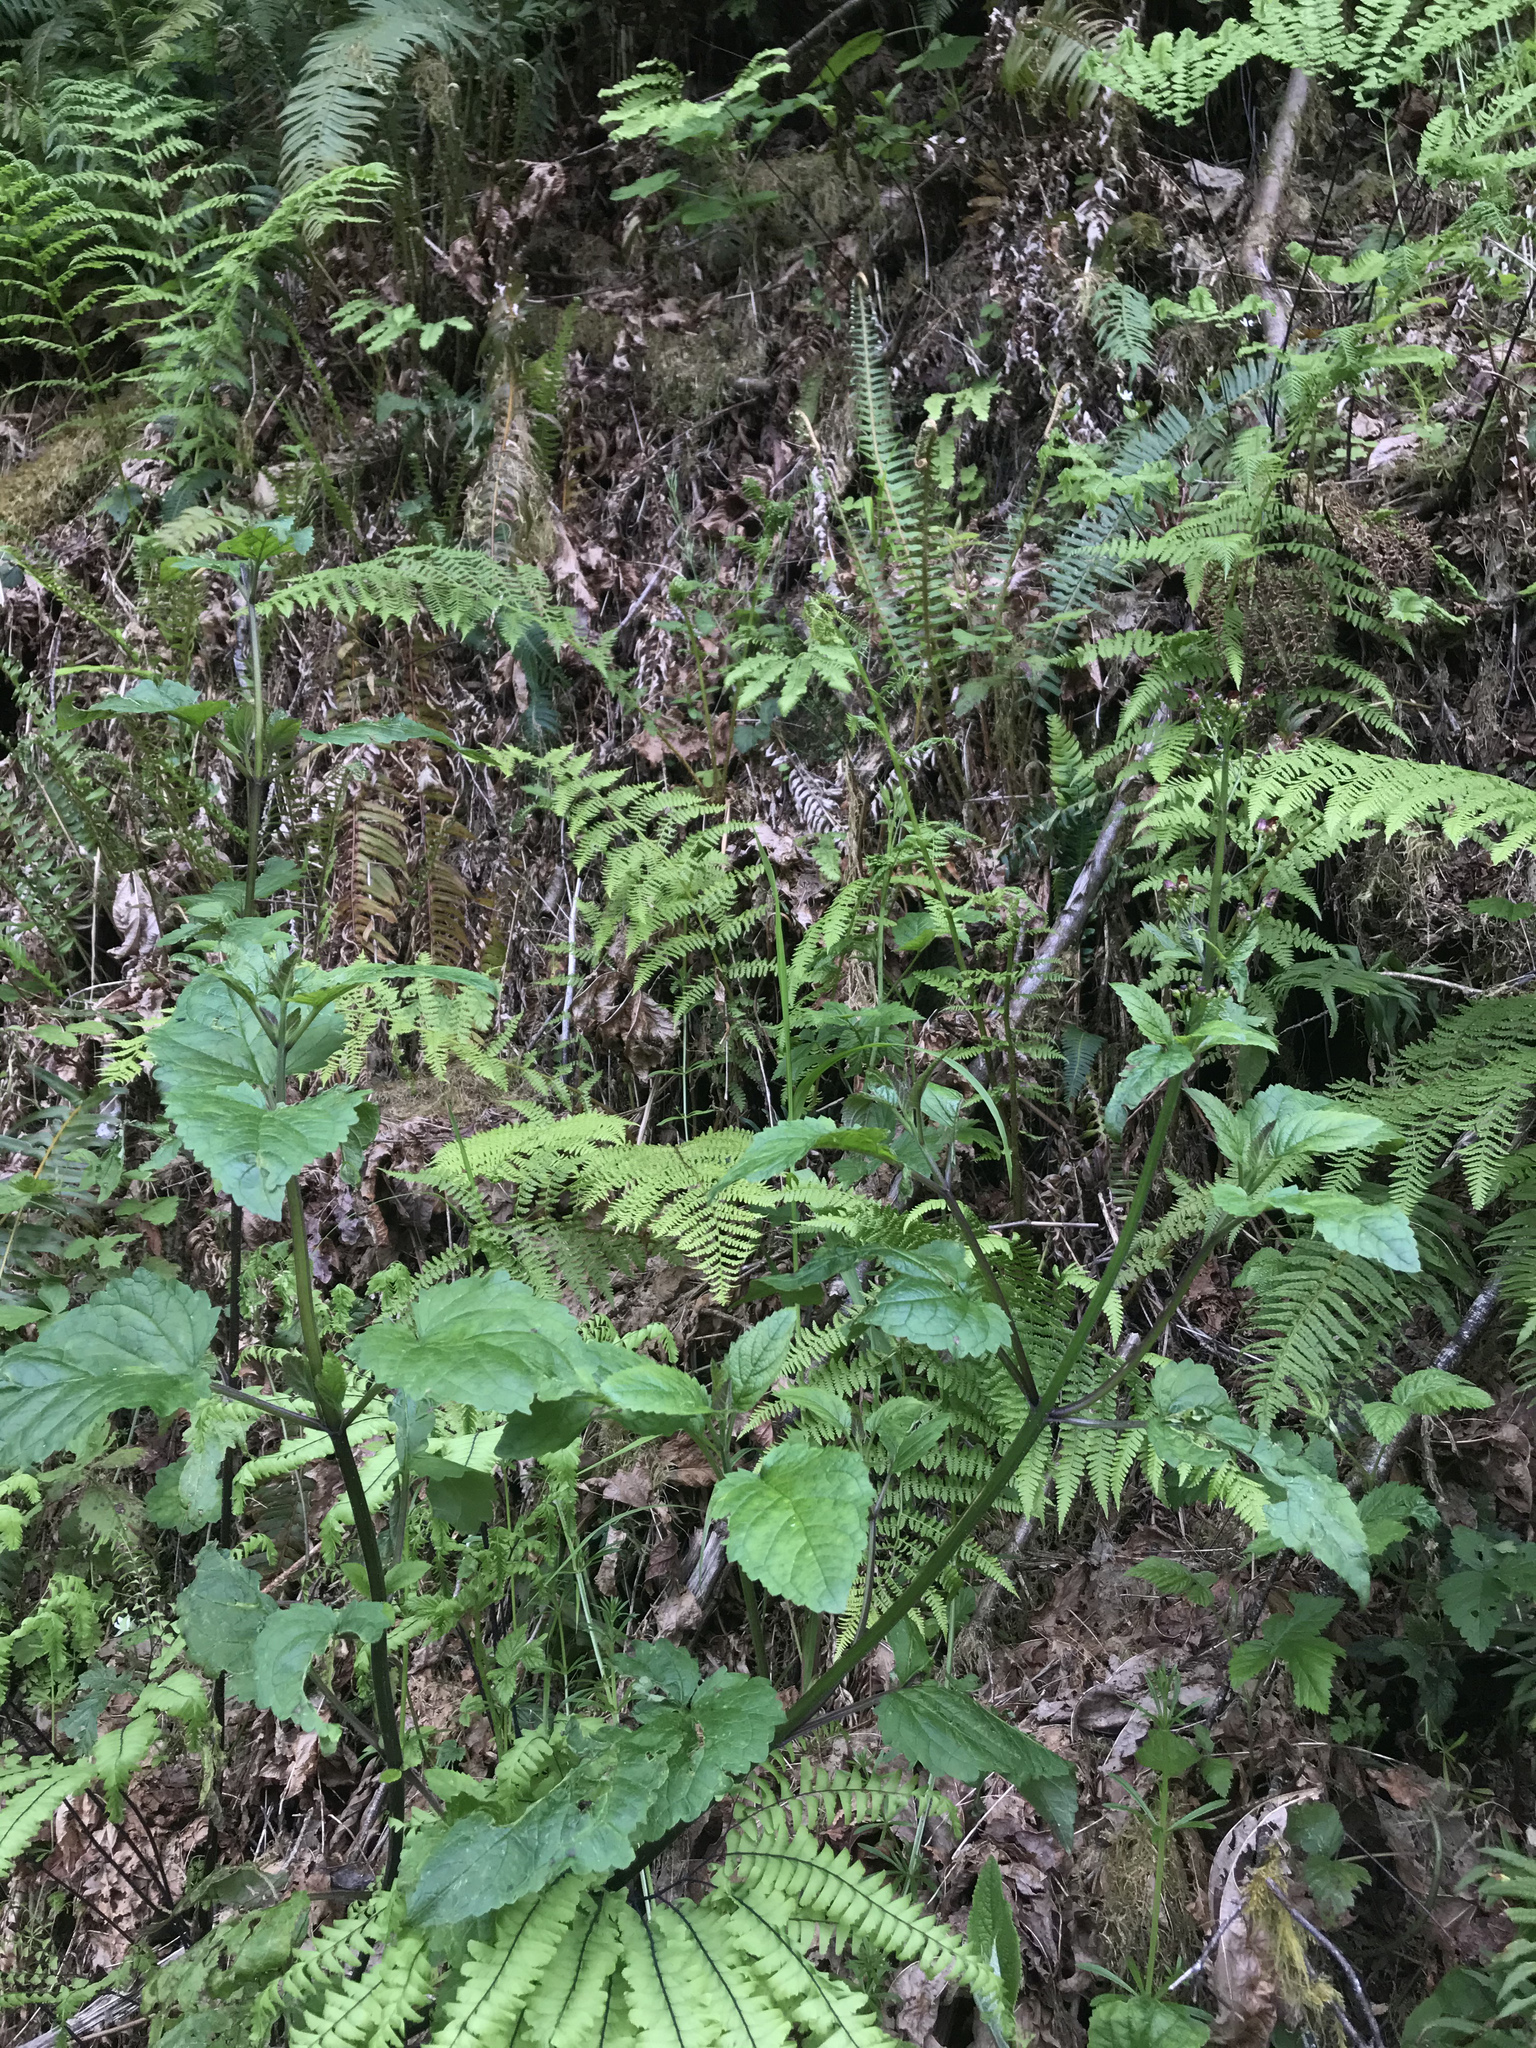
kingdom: Plantae
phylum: Tracheophyta
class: Magnoliopsida
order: Lamiales
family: Scrophulariaceae
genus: Scrophularia
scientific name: Scrophularia californica
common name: California figwort
